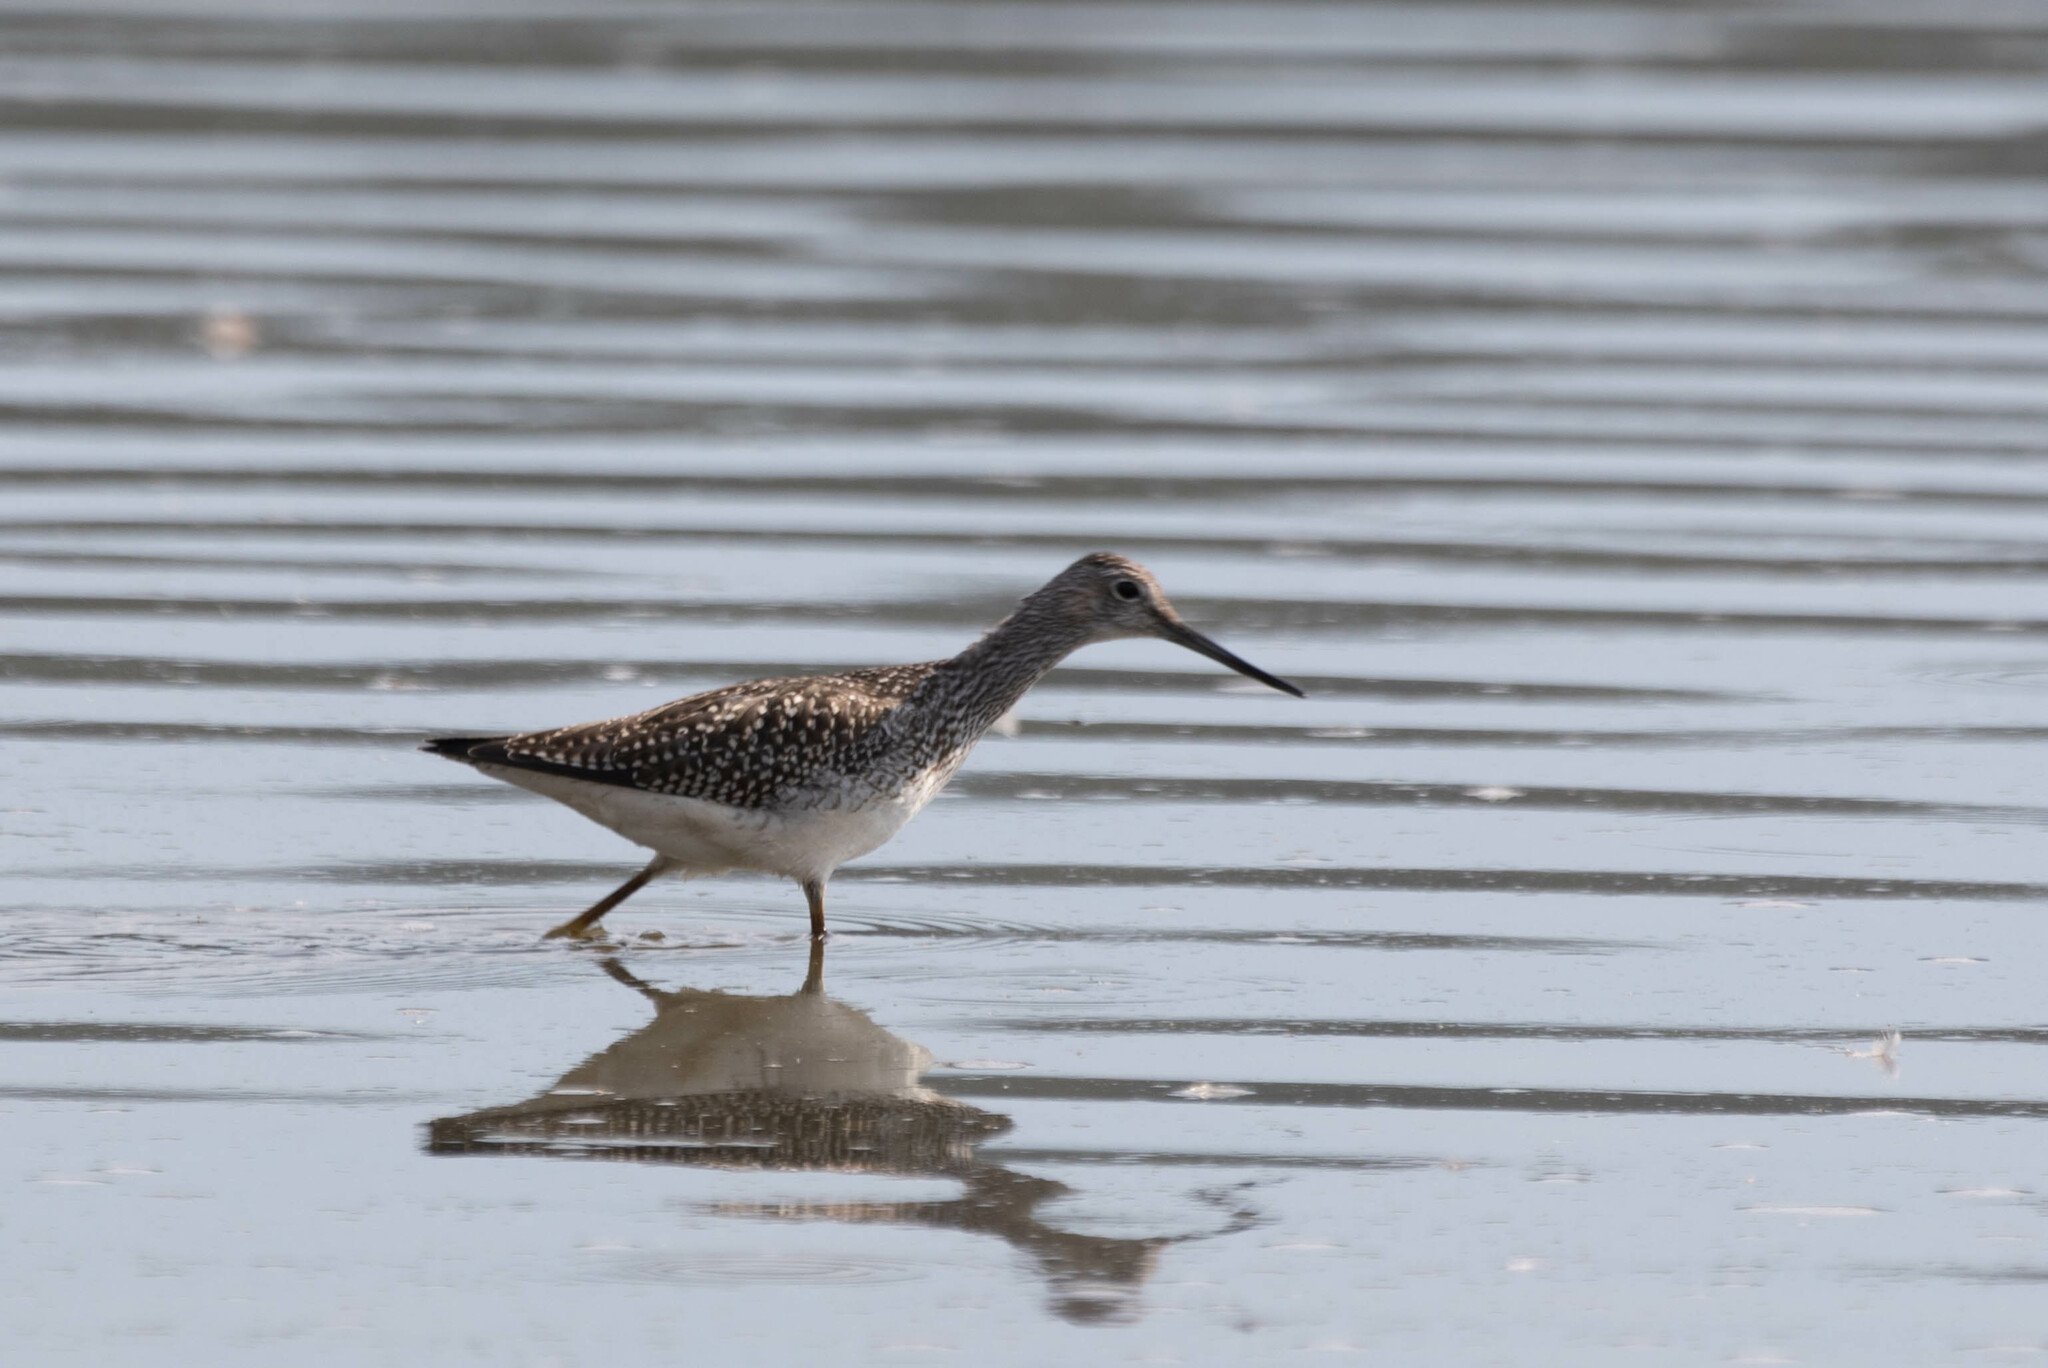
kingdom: Animalia
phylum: Chordata
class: Aves
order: Charadriiformes
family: Scolopacidae
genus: Tringa
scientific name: Tringa melanoleuca
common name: Greater yellowlegs
